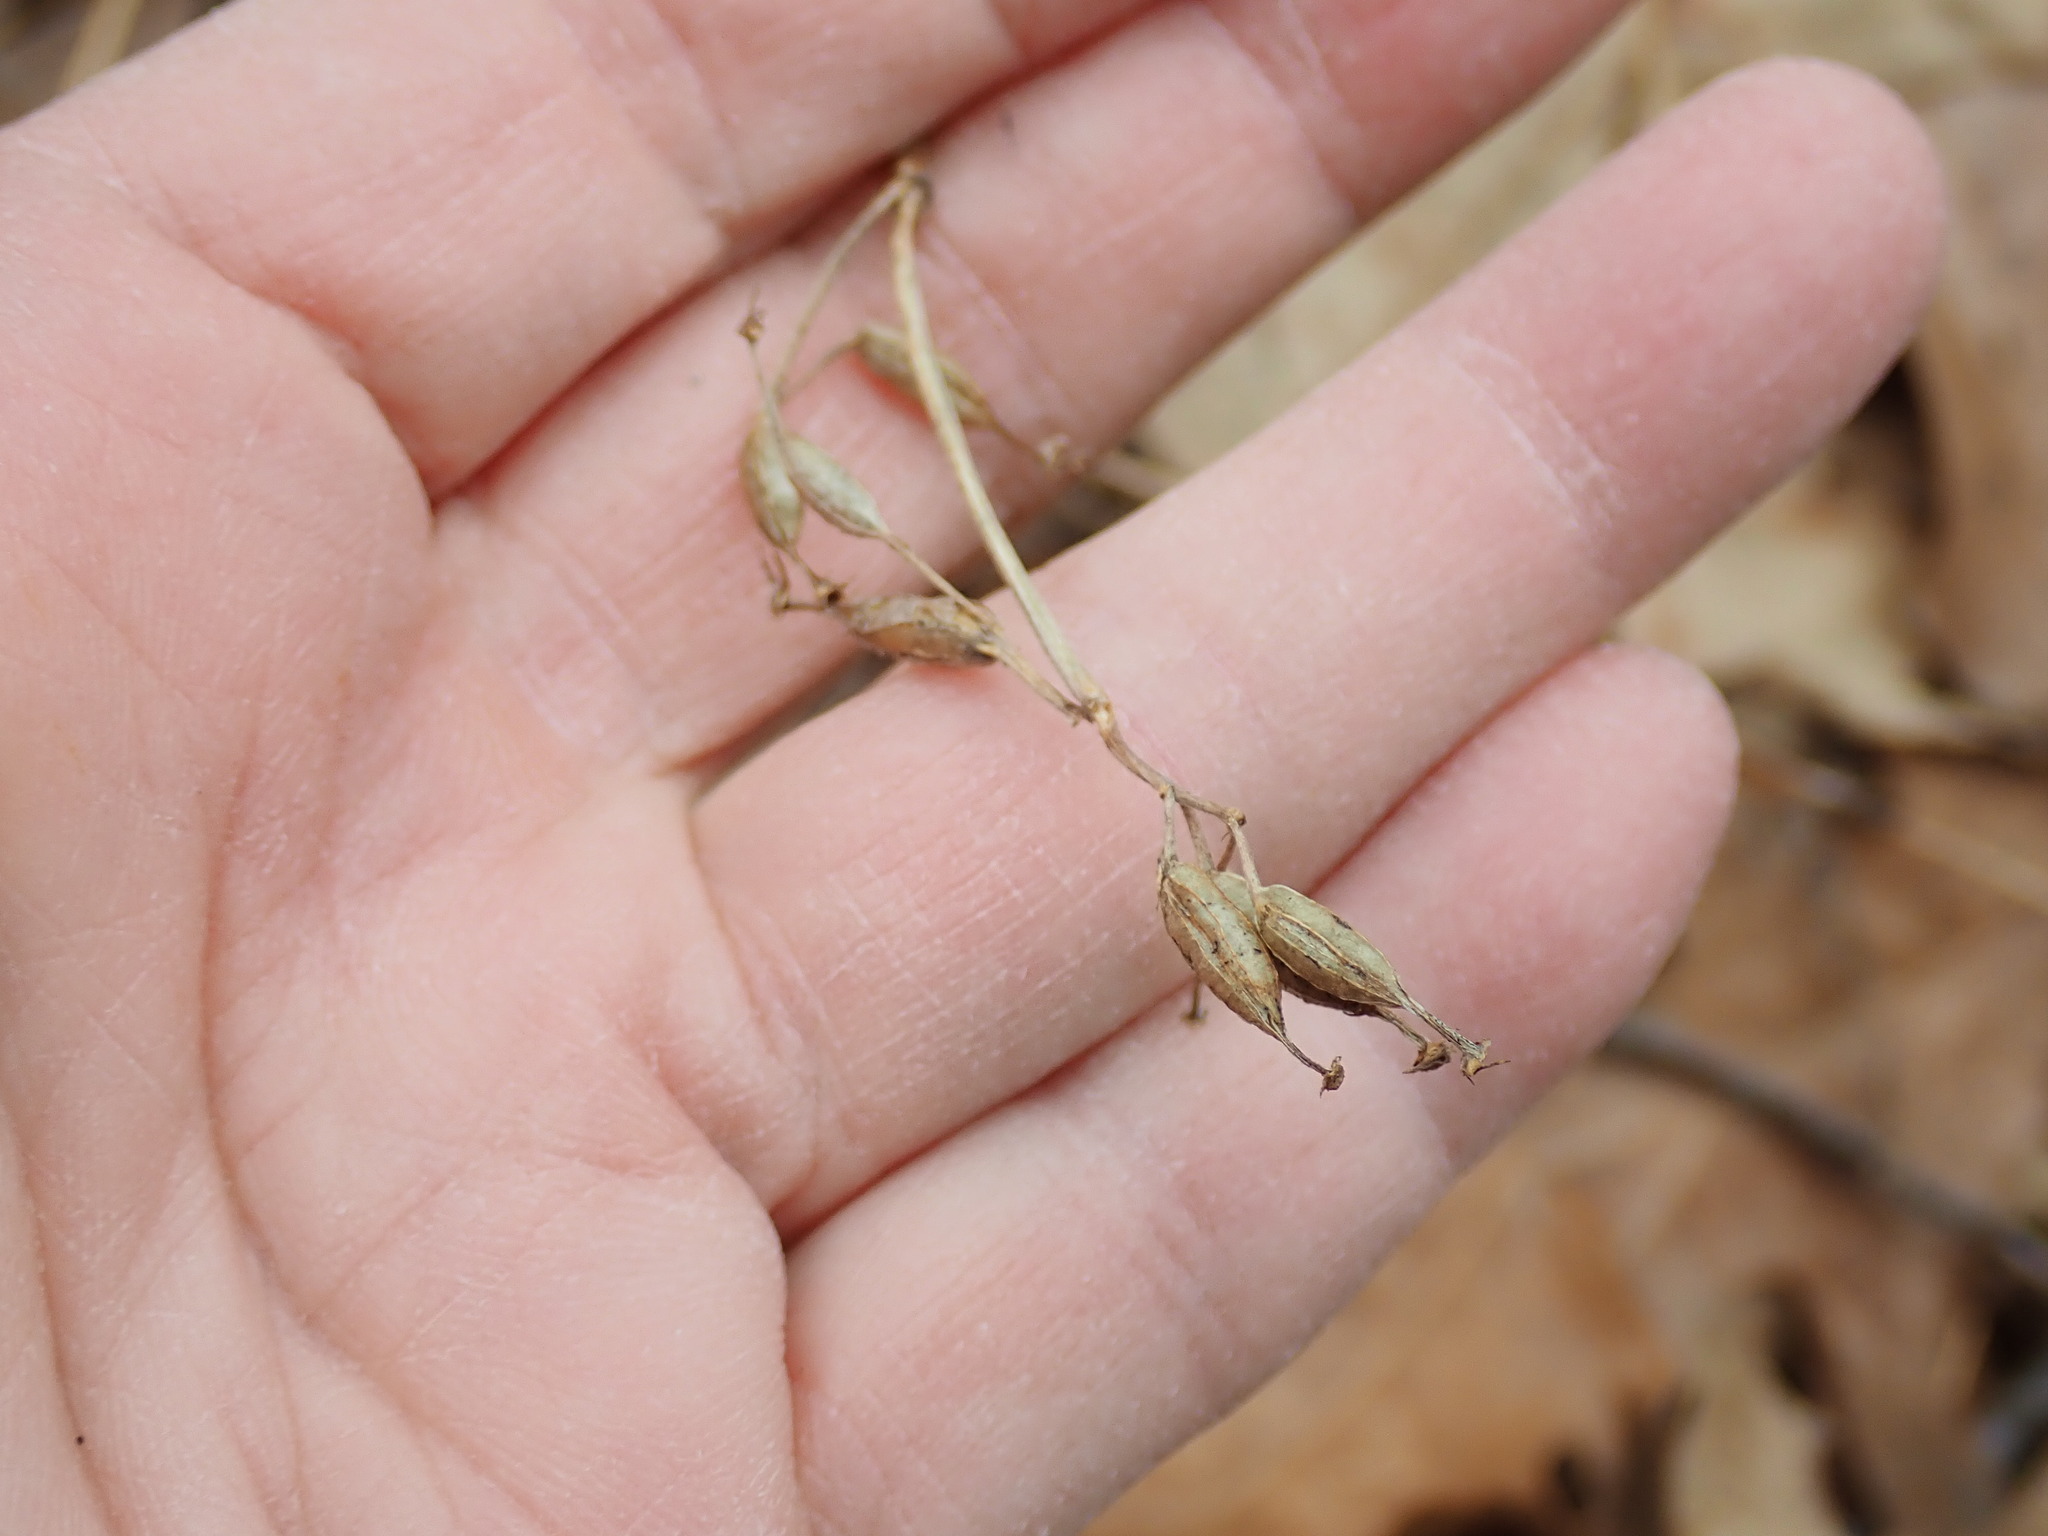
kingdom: Plantae
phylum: Tracheophyta
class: Magnoliopsida
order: Dipsacales
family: Caprifoliaceae
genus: Diervilla
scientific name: Diervilla lonicera
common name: Bush-honeysuckle
